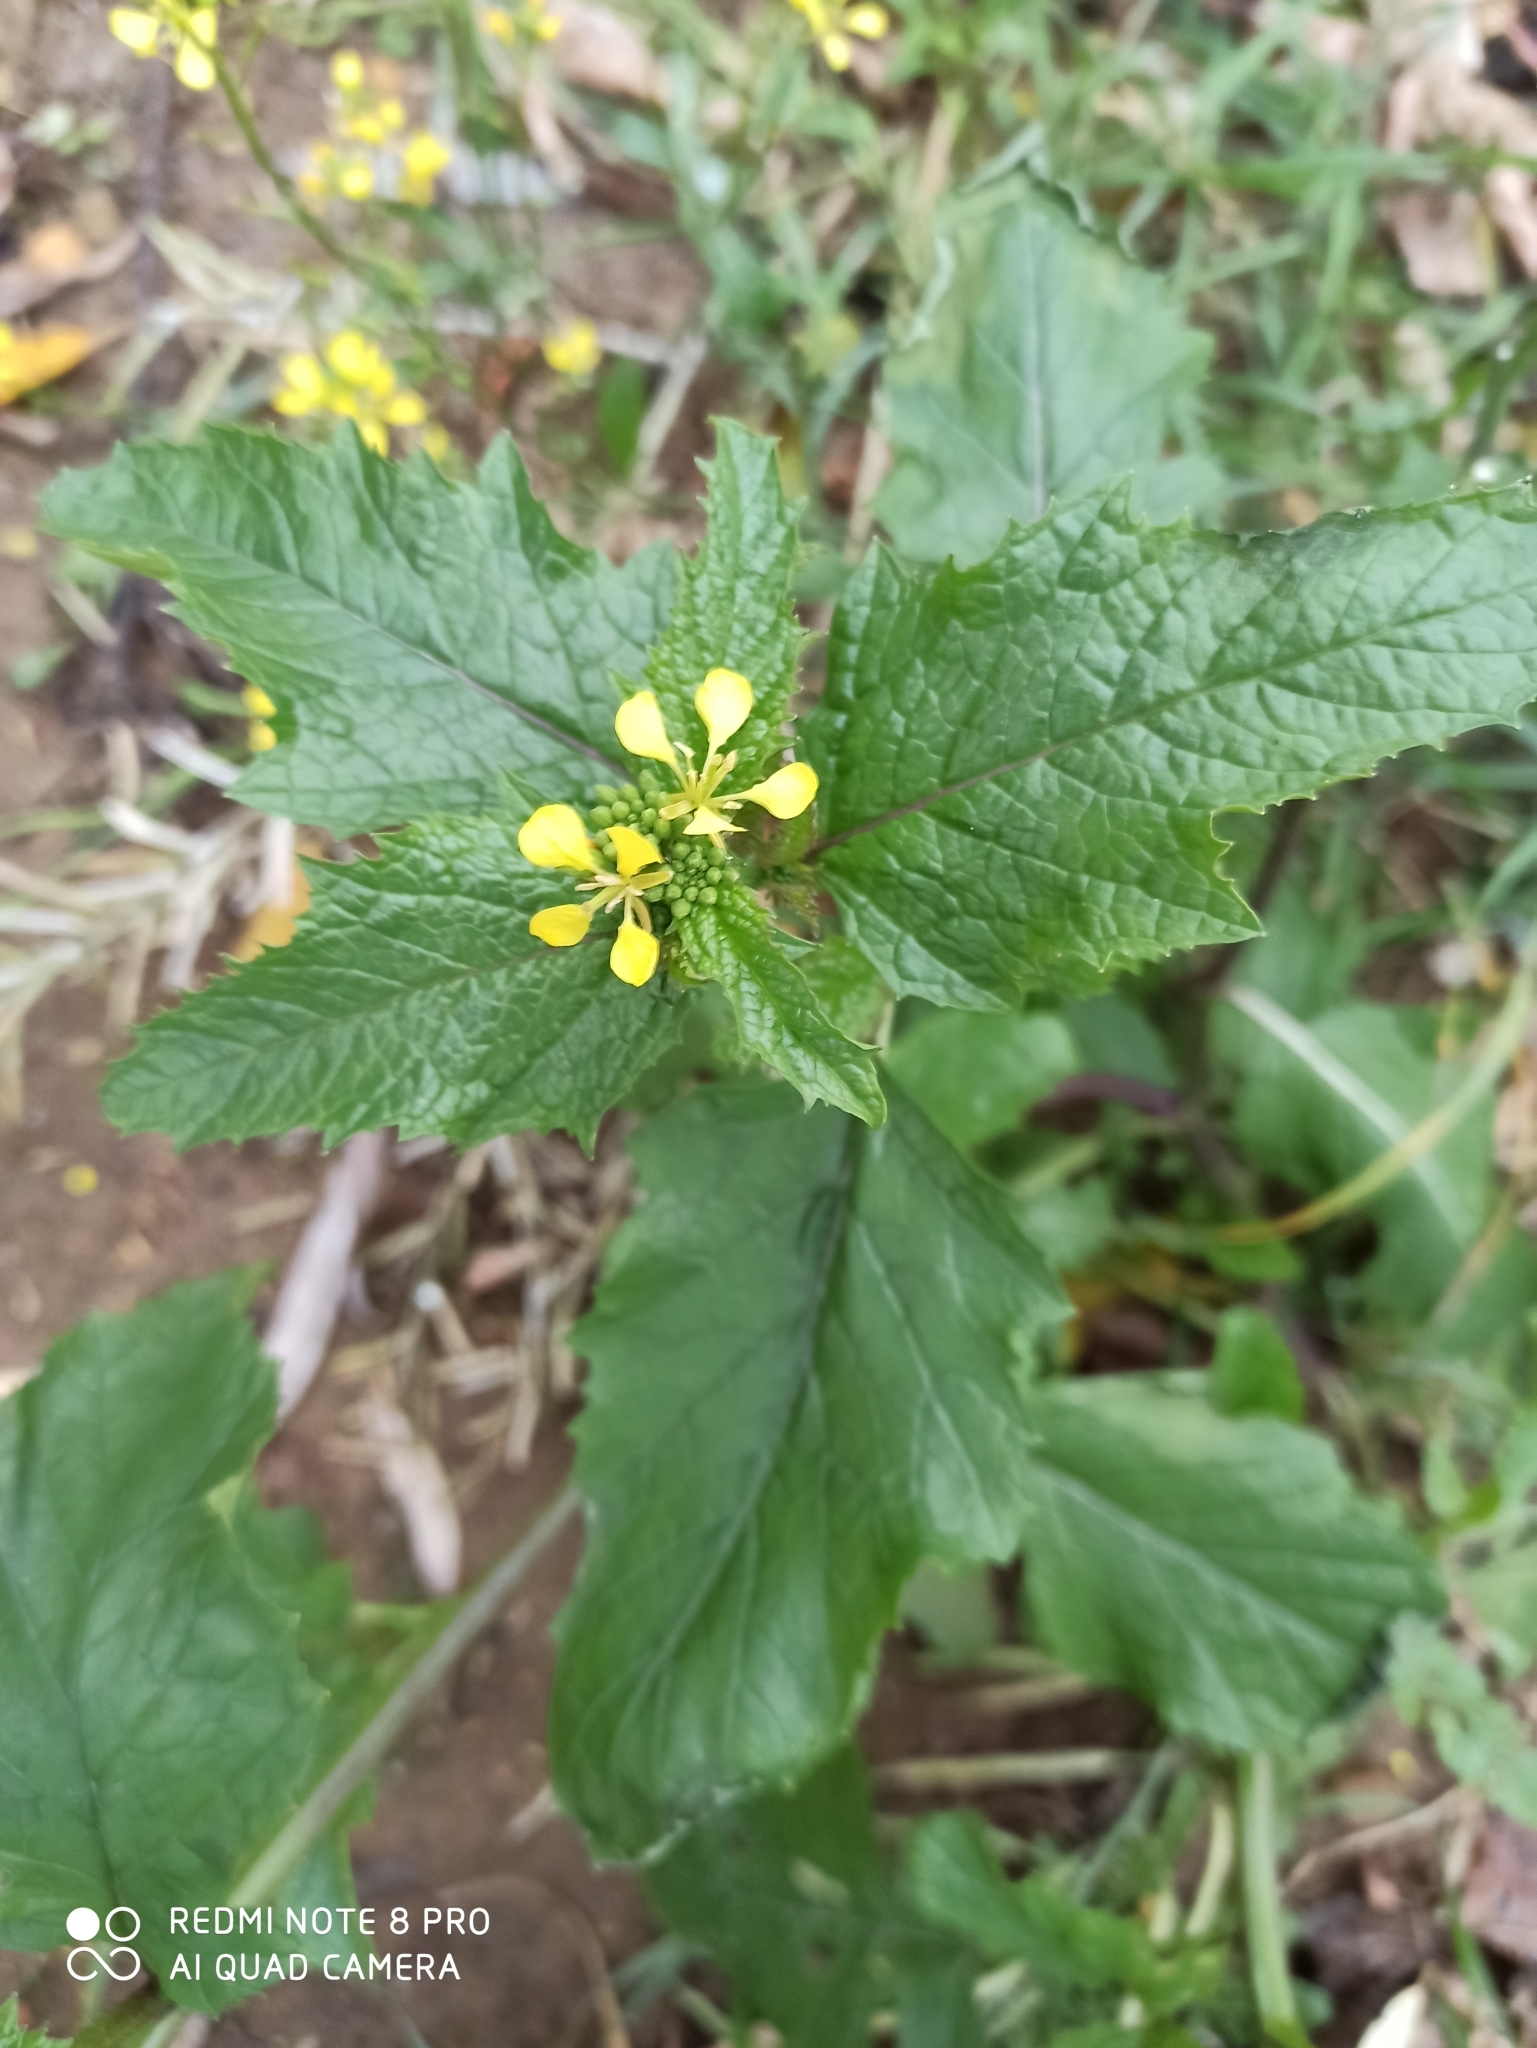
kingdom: Plantae
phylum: Tracheophyta
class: Magnoliopsida
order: Brassicales
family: Brassicaceae
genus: Sinapis
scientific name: Sinapis arvensis
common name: Charlock
